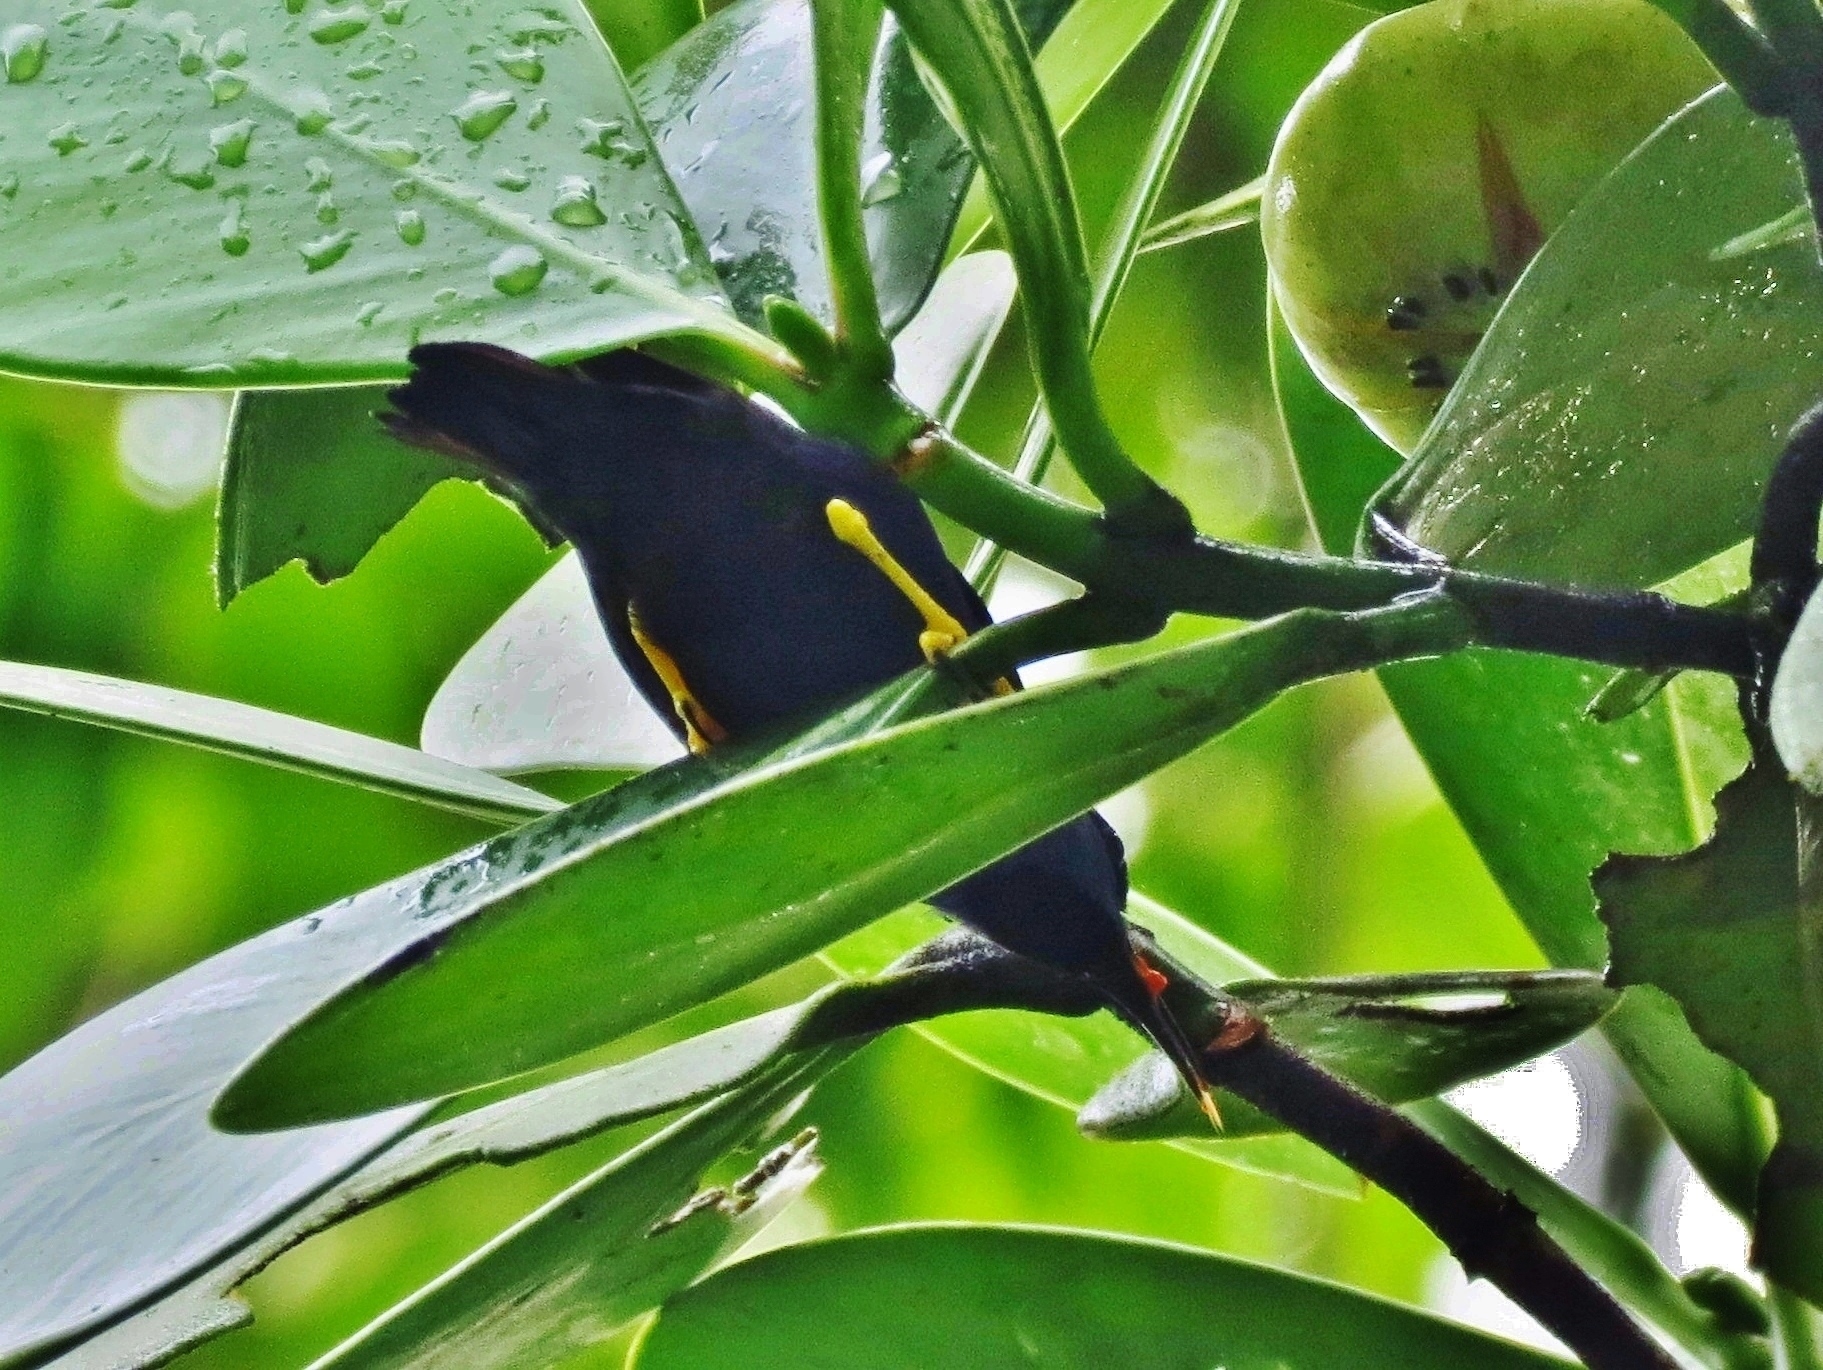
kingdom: Animalia
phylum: Chordata
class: Aves
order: Passeriformes
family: Thraupidae
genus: Cyanerpes
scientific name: Cyanerpes lucidus
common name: Shining honeycreeper
